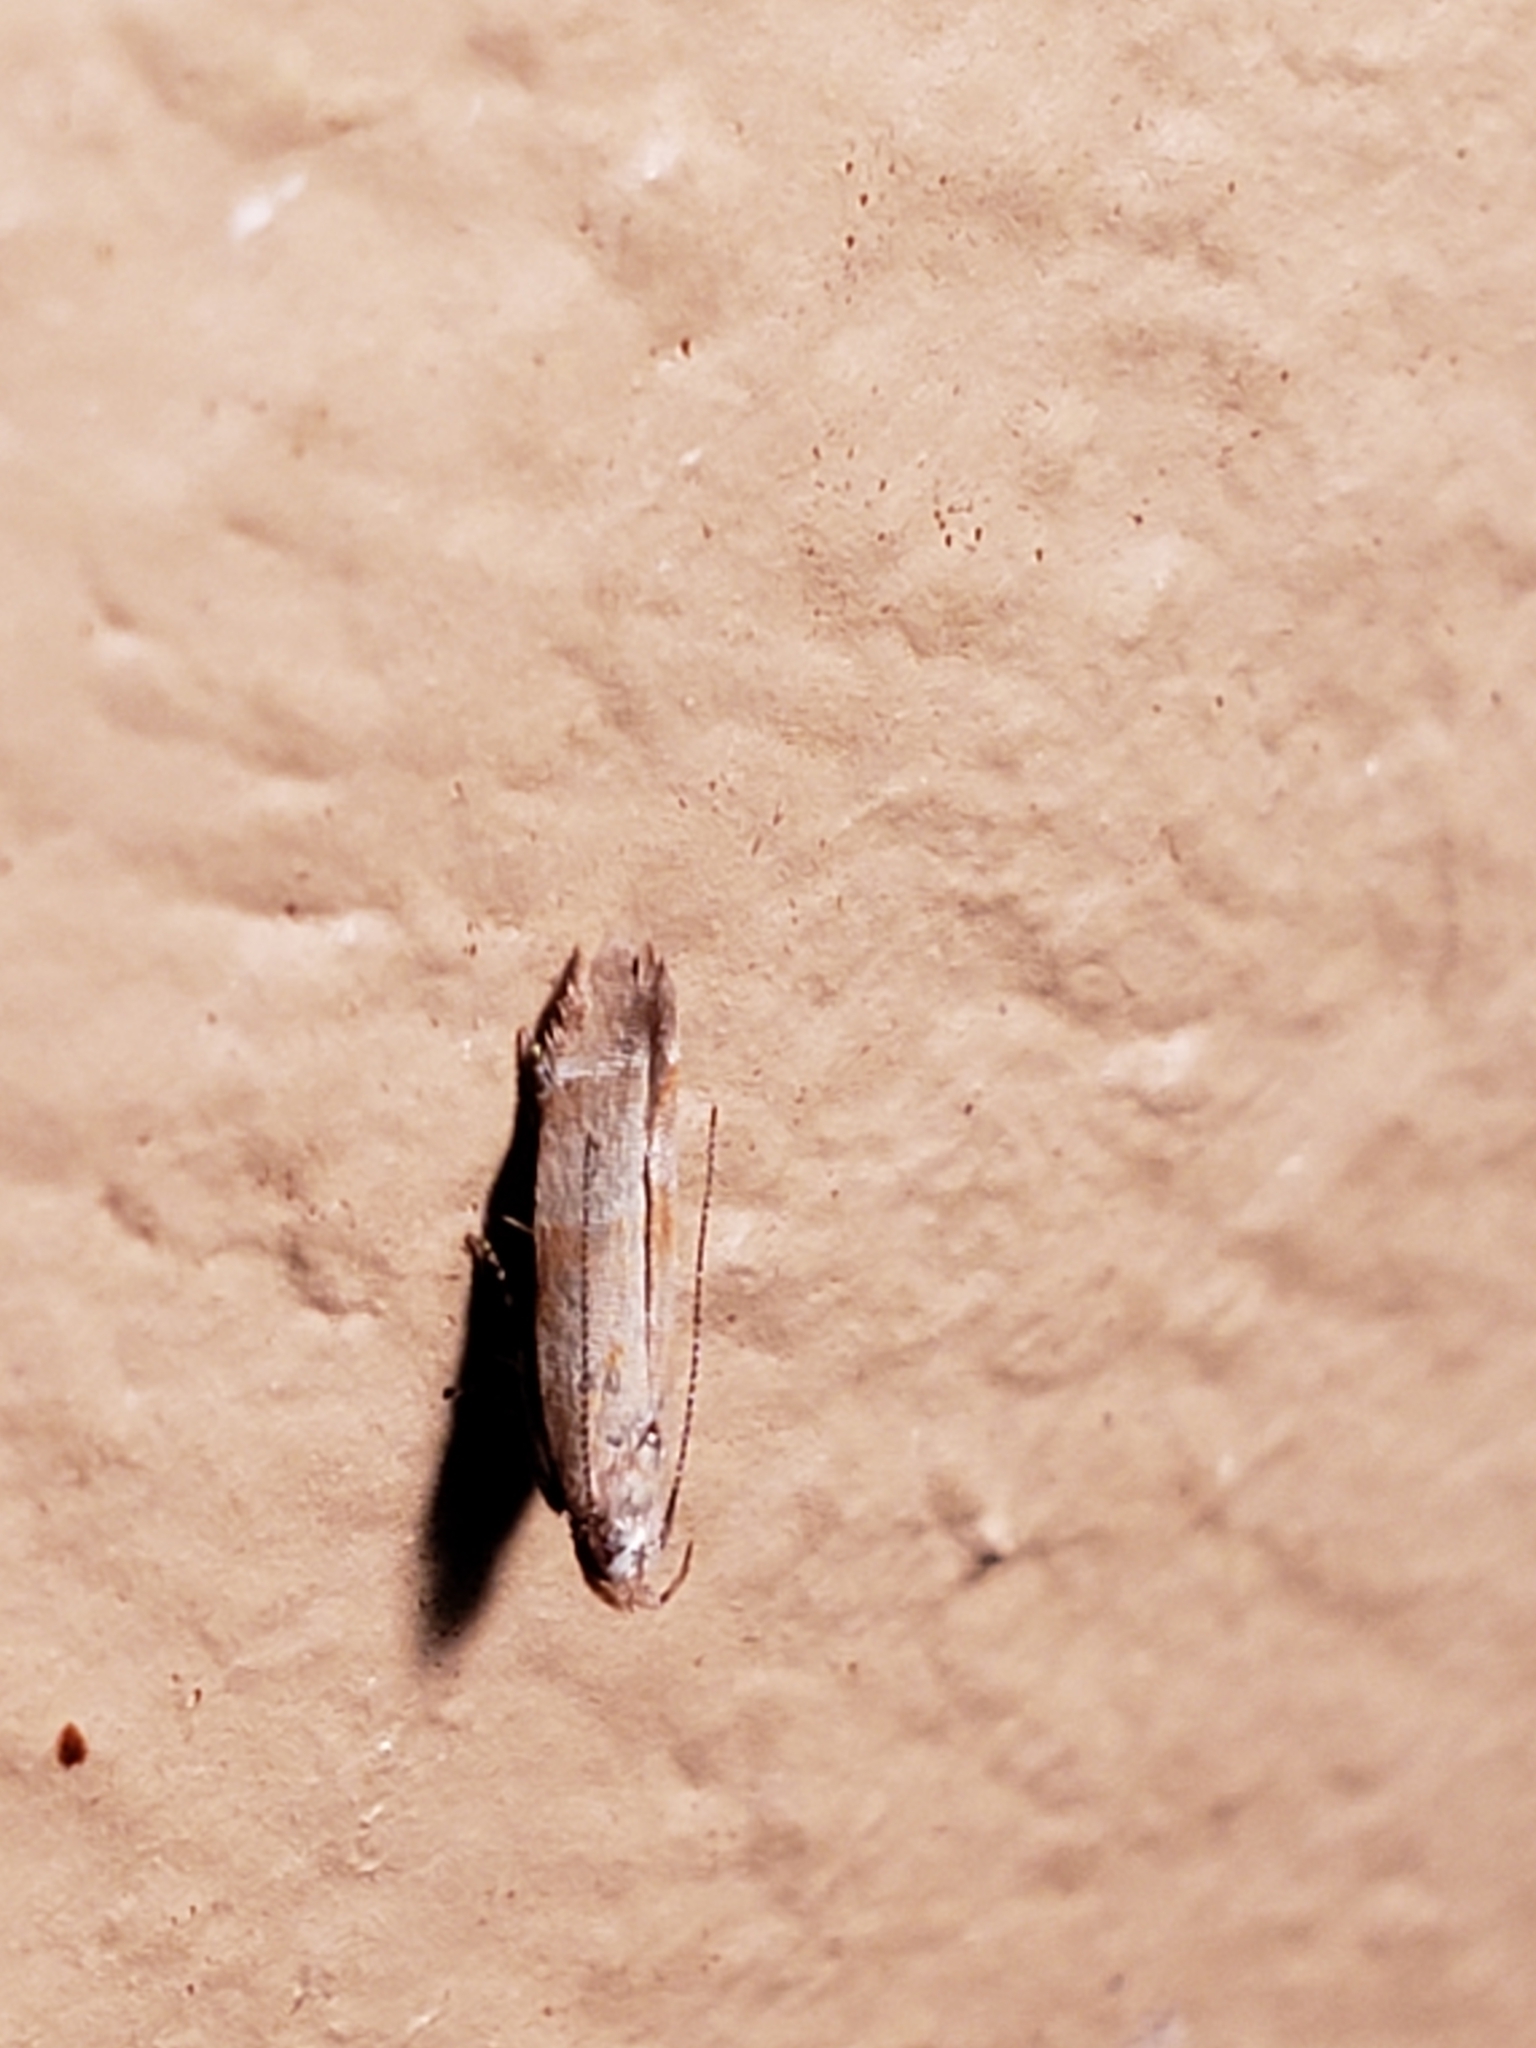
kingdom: Animalia
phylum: Arthropoda
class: Insecta
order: Lepidoptera
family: Gelechiidae
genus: Battaristis
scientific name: Battaristis vittella
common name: Orange stripe-backed moth
